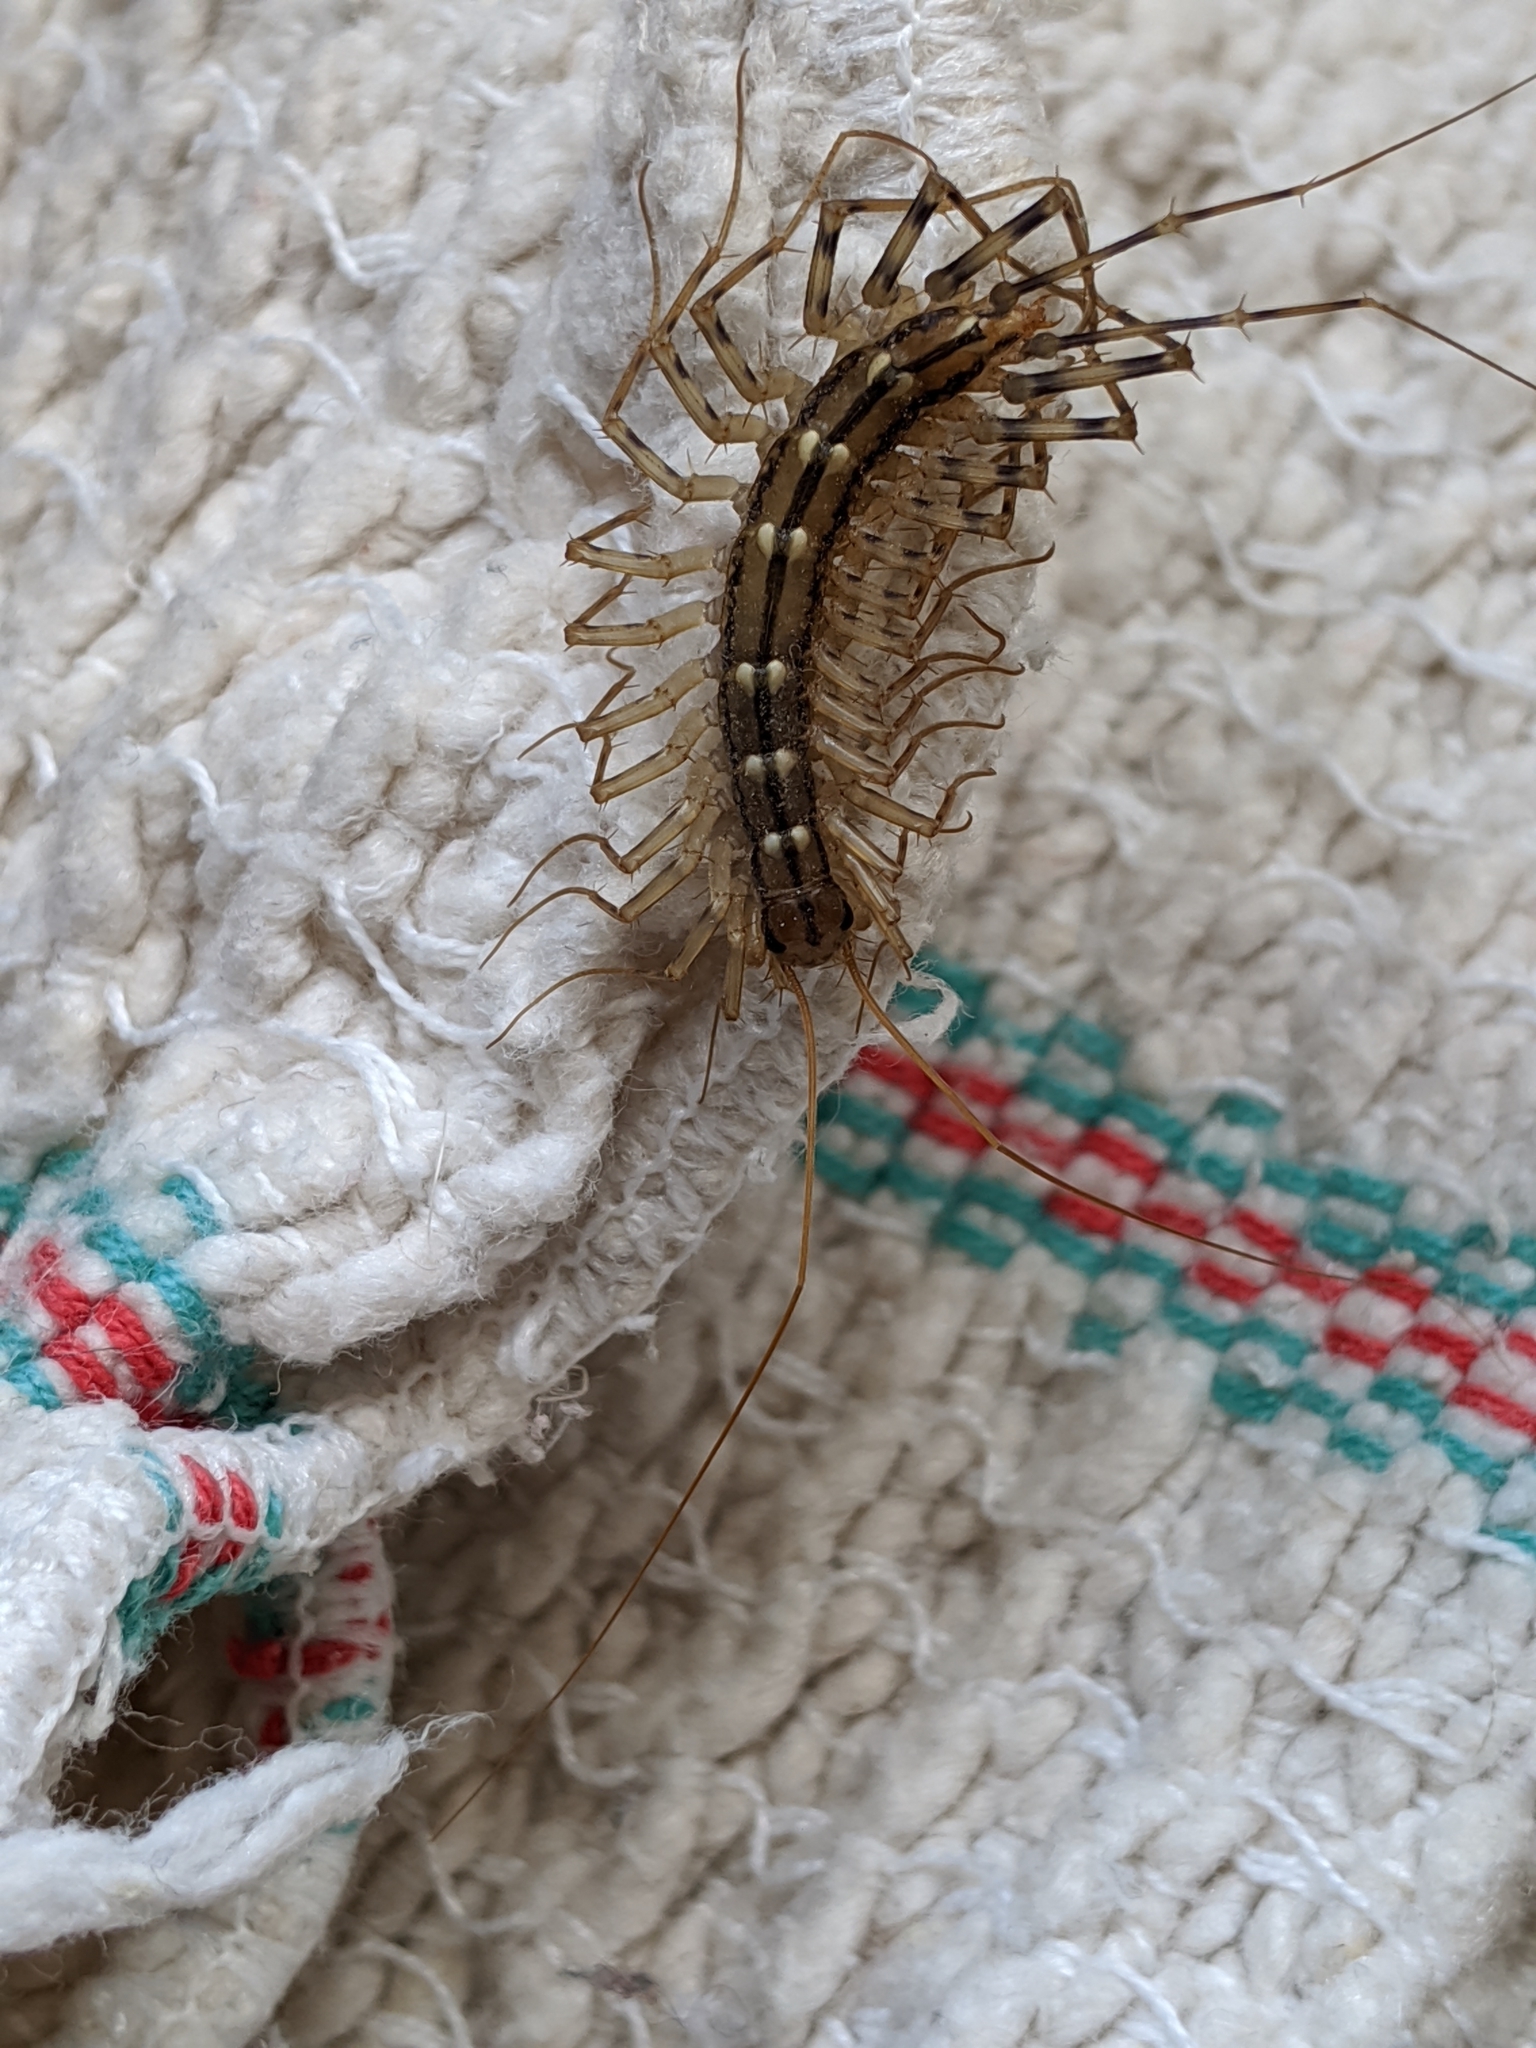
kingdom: Animalia
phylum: Arthropoda
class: Chilopoda
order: Scutigeromorpha
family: Scutigeridae
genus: Scutigera
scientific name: Scutigera coleoptrata
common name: House centipede
